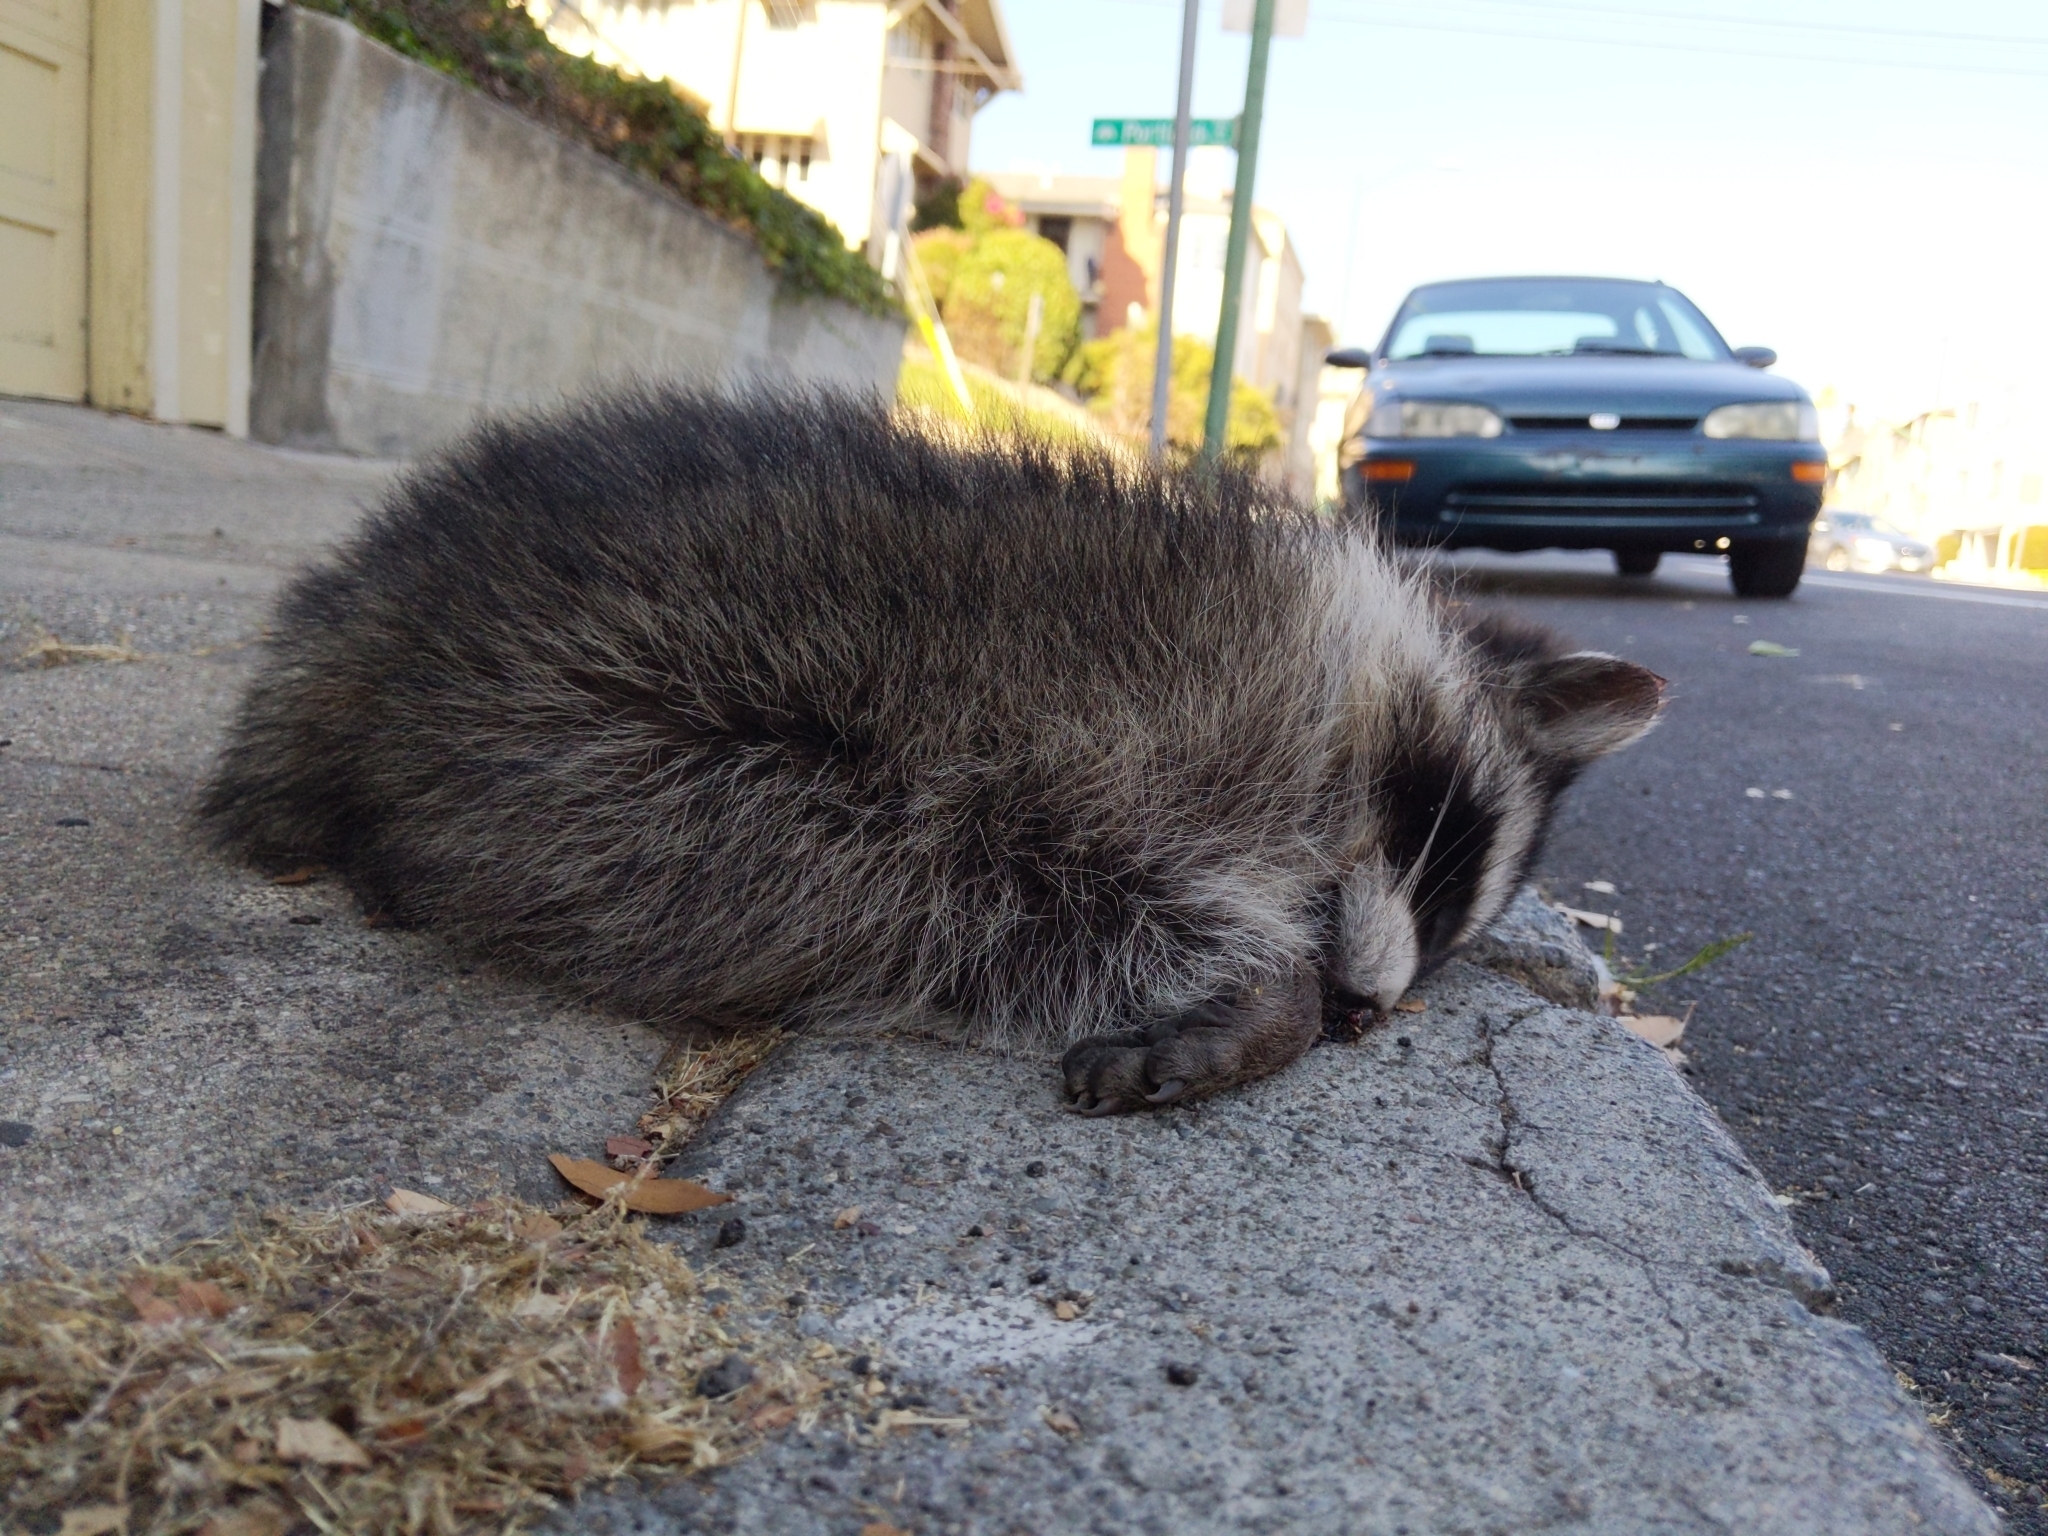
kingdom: Animalia
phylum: Chordata
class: Mammalia
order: Carnivora
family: Procyonidae
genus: Procyon
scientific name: Procyon lotor
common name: Raccoon
